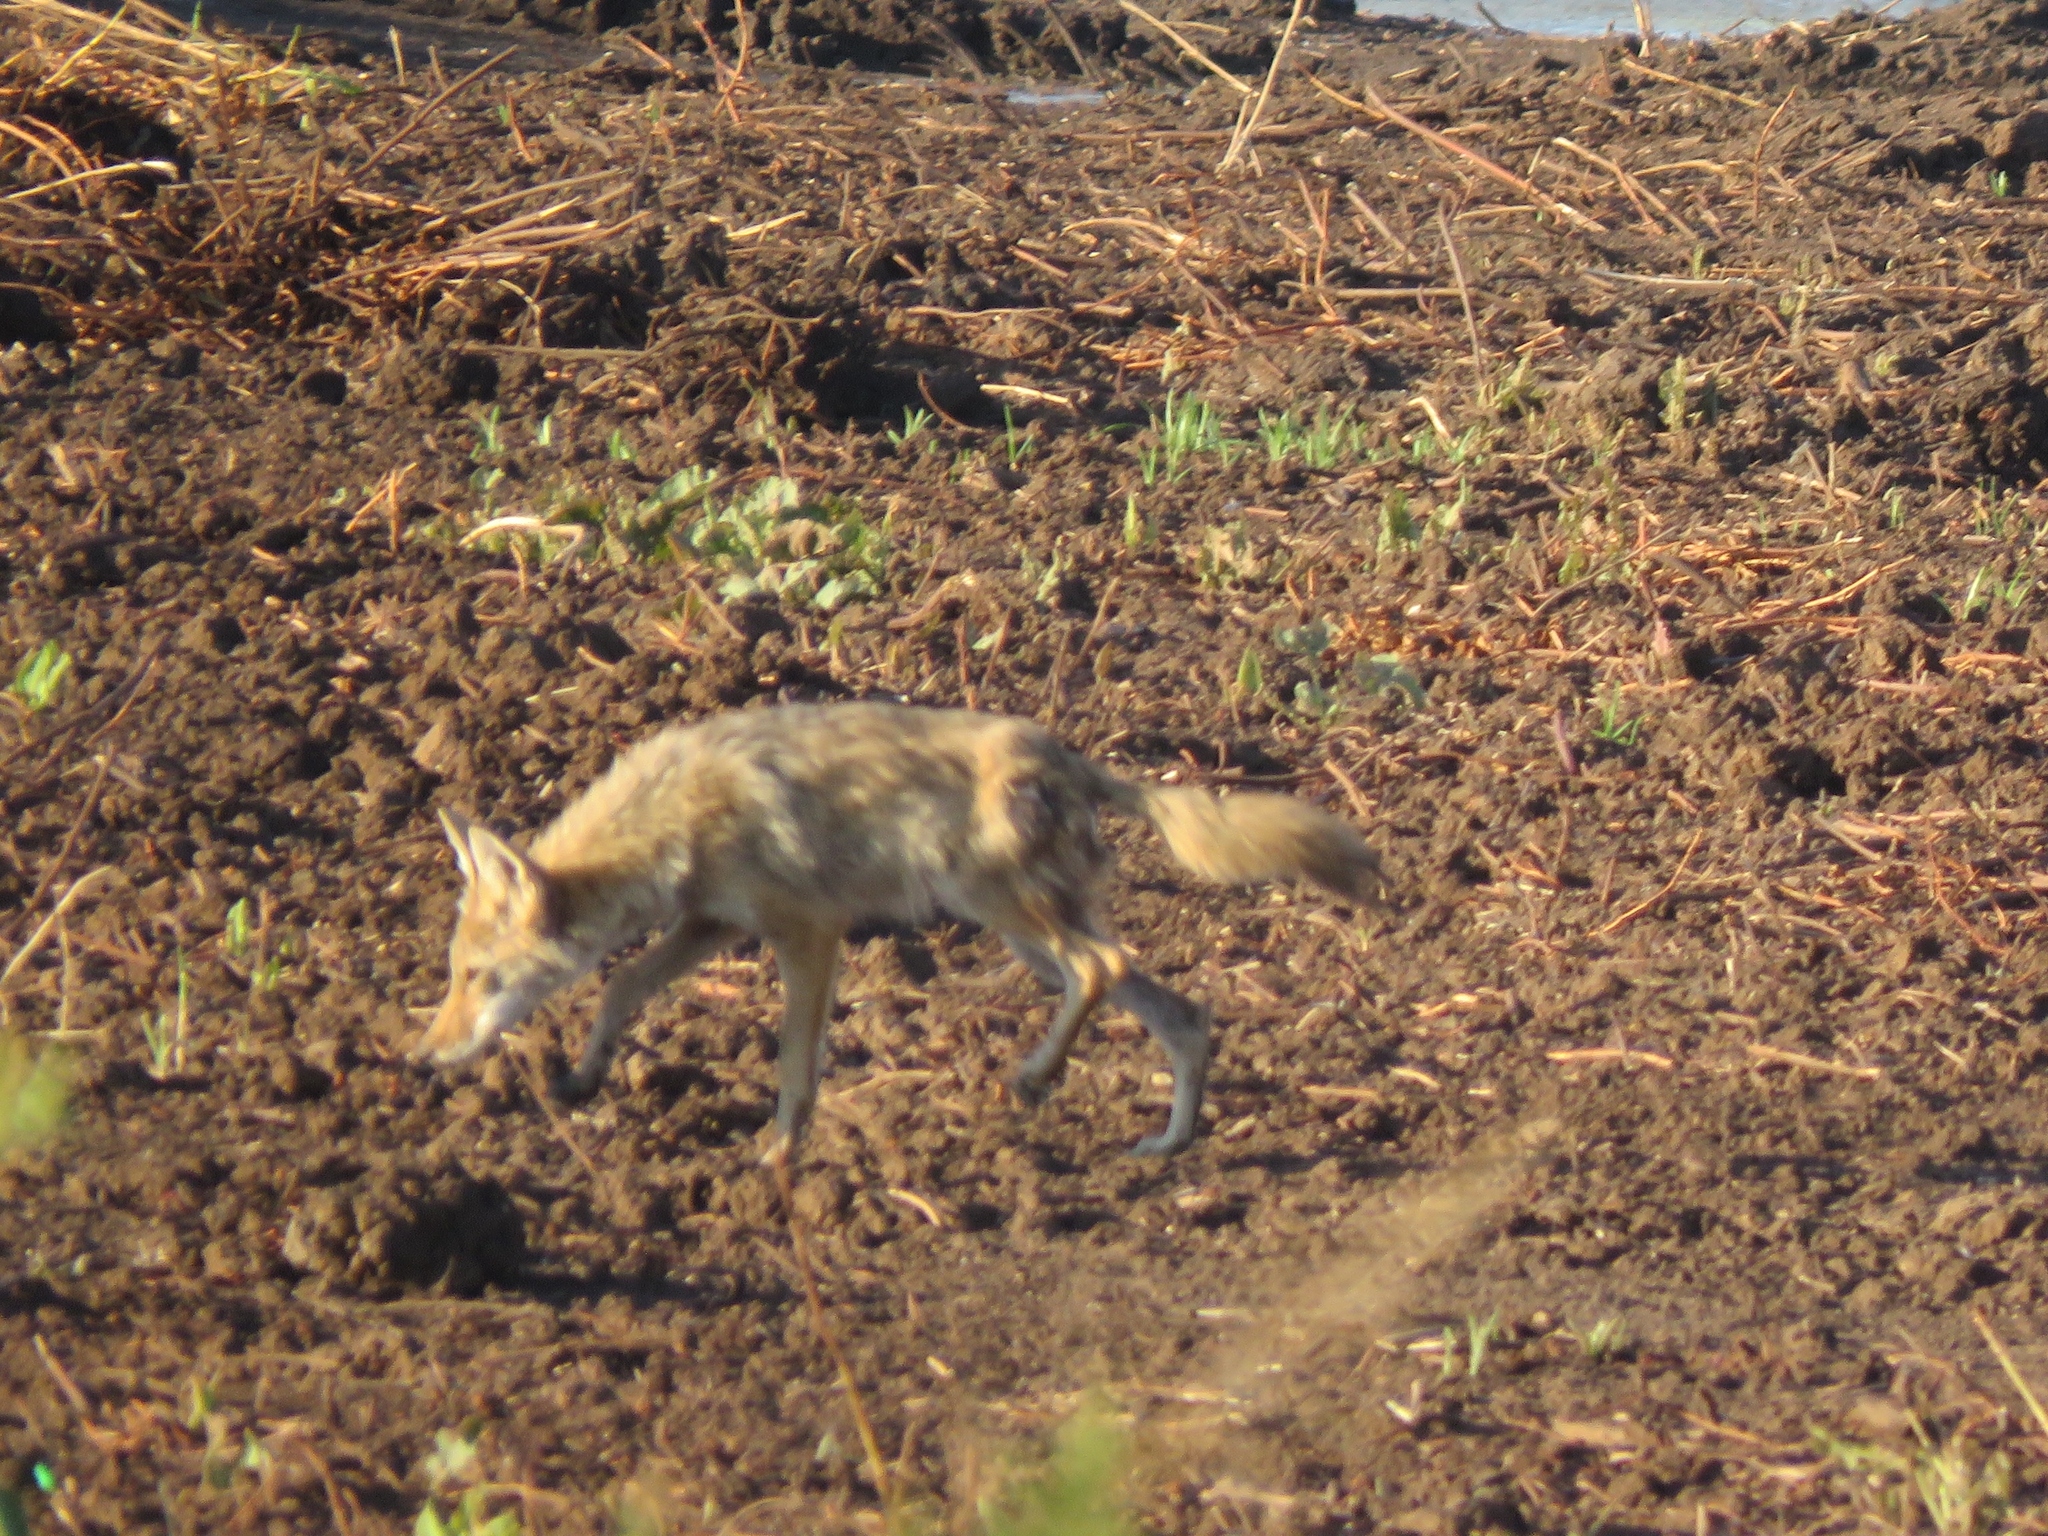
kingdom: Animalia
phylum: Chordata
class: Mammalia
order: Carnivora
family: Canidae
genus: Canis
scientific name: Canis latrans
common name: Coyote
